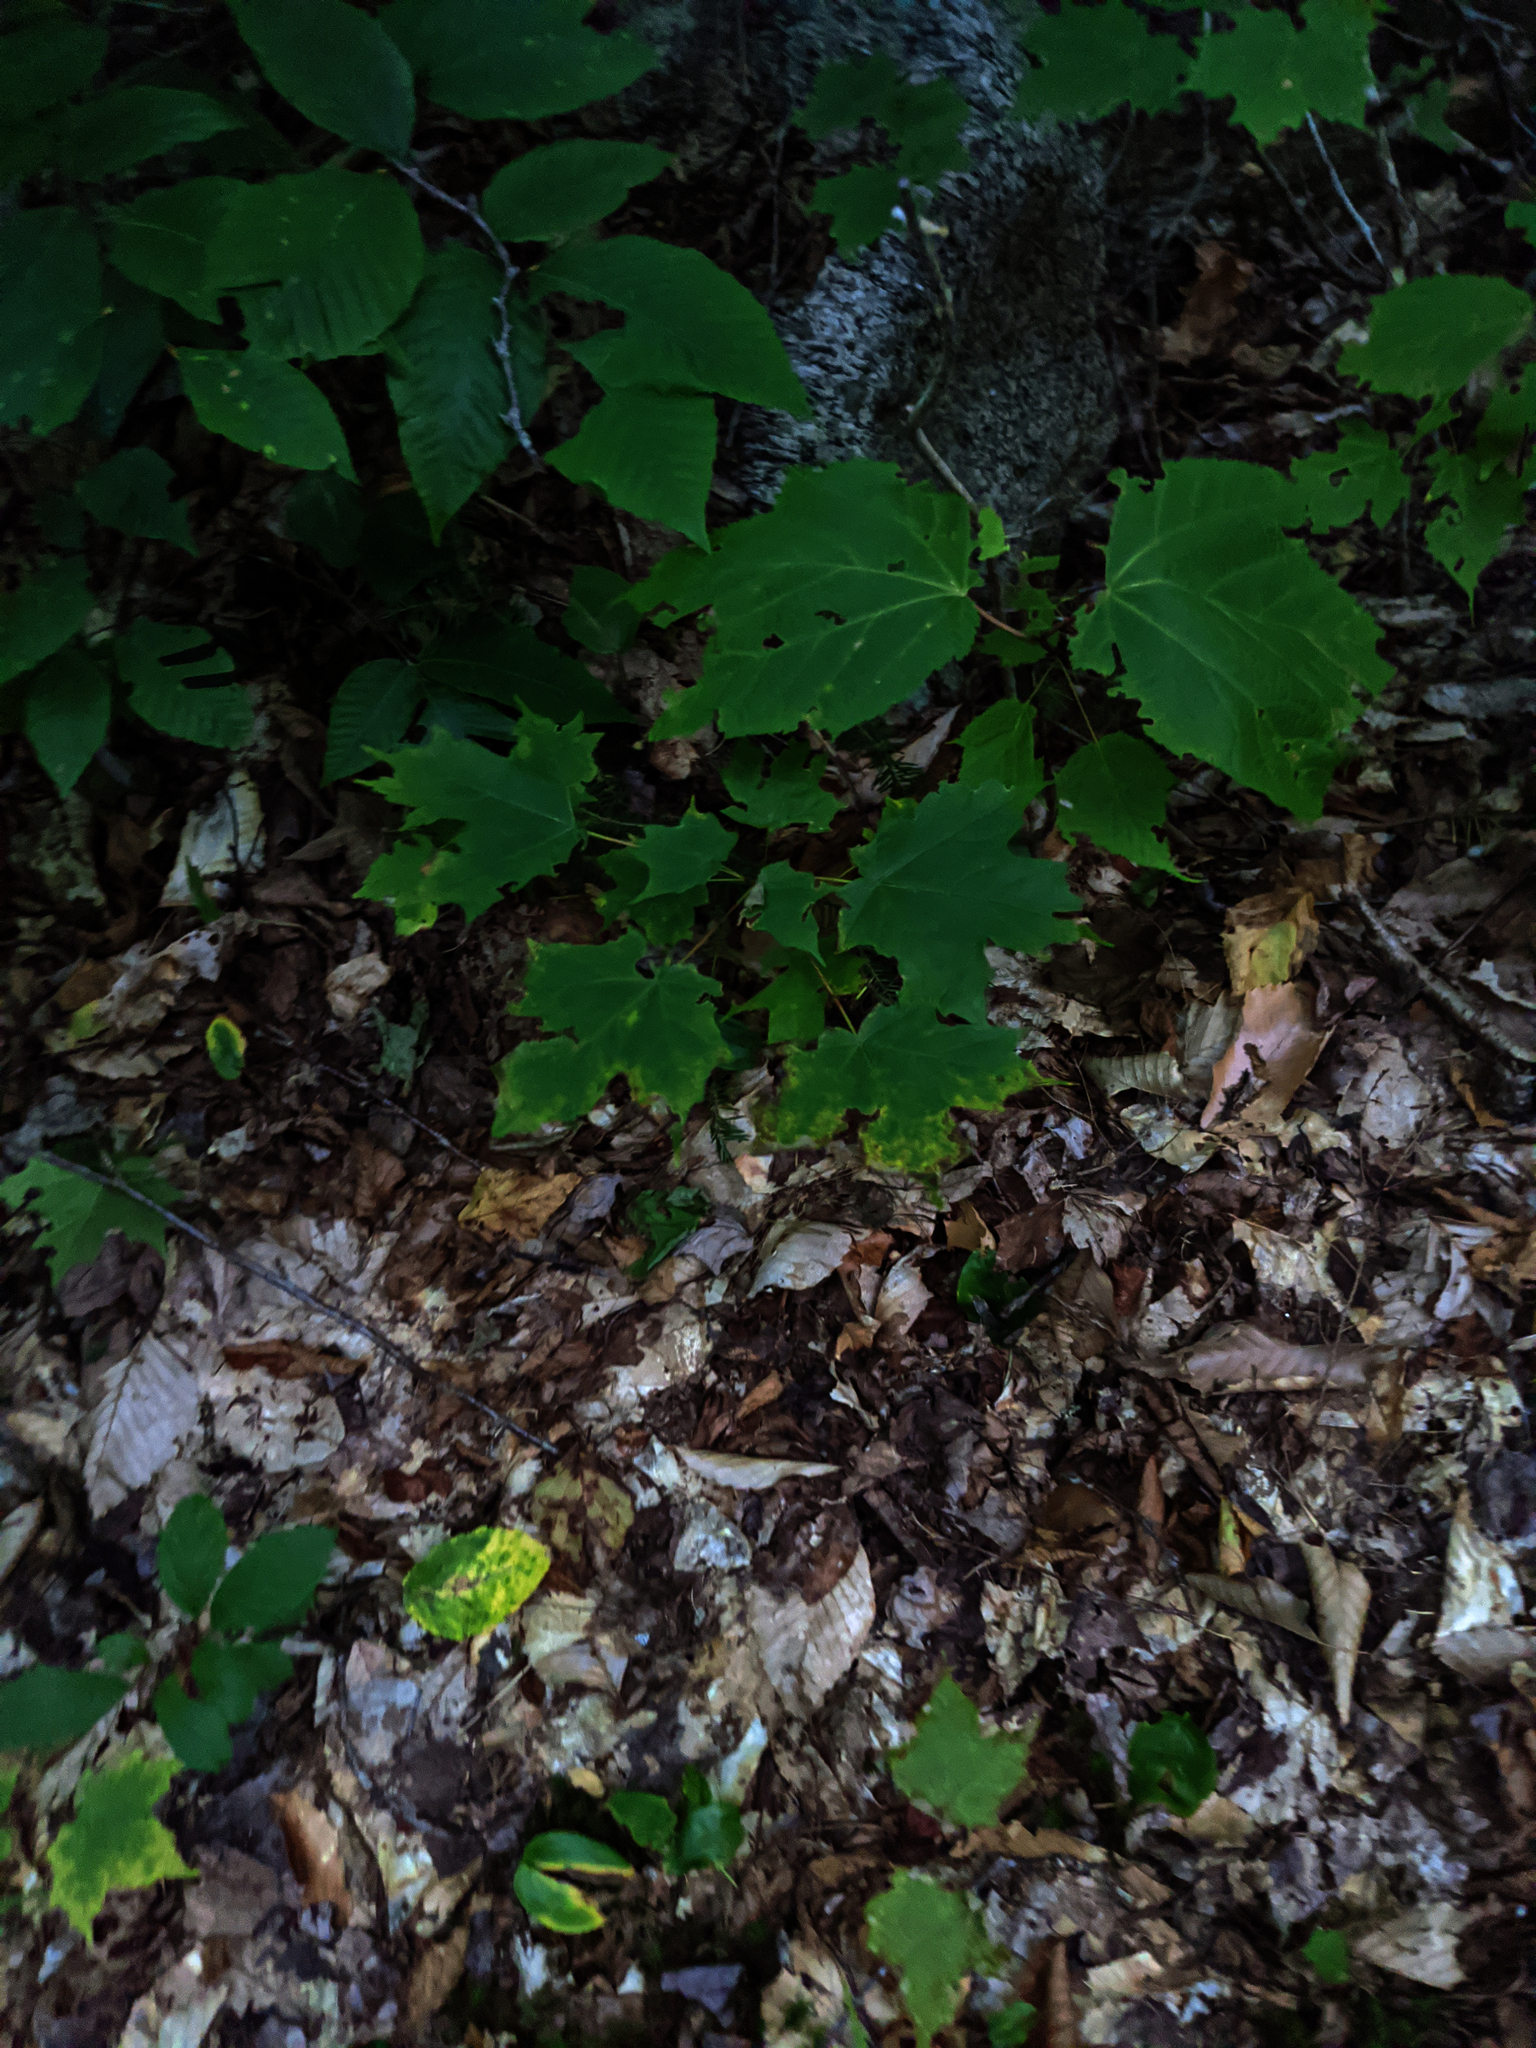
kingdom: Plantae
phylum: Tracheophyta
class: Magnoliopsida
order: Sapindales
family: Sapindaceae
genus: Acer
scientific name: Acer pensylvanicum
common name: Moosewood
